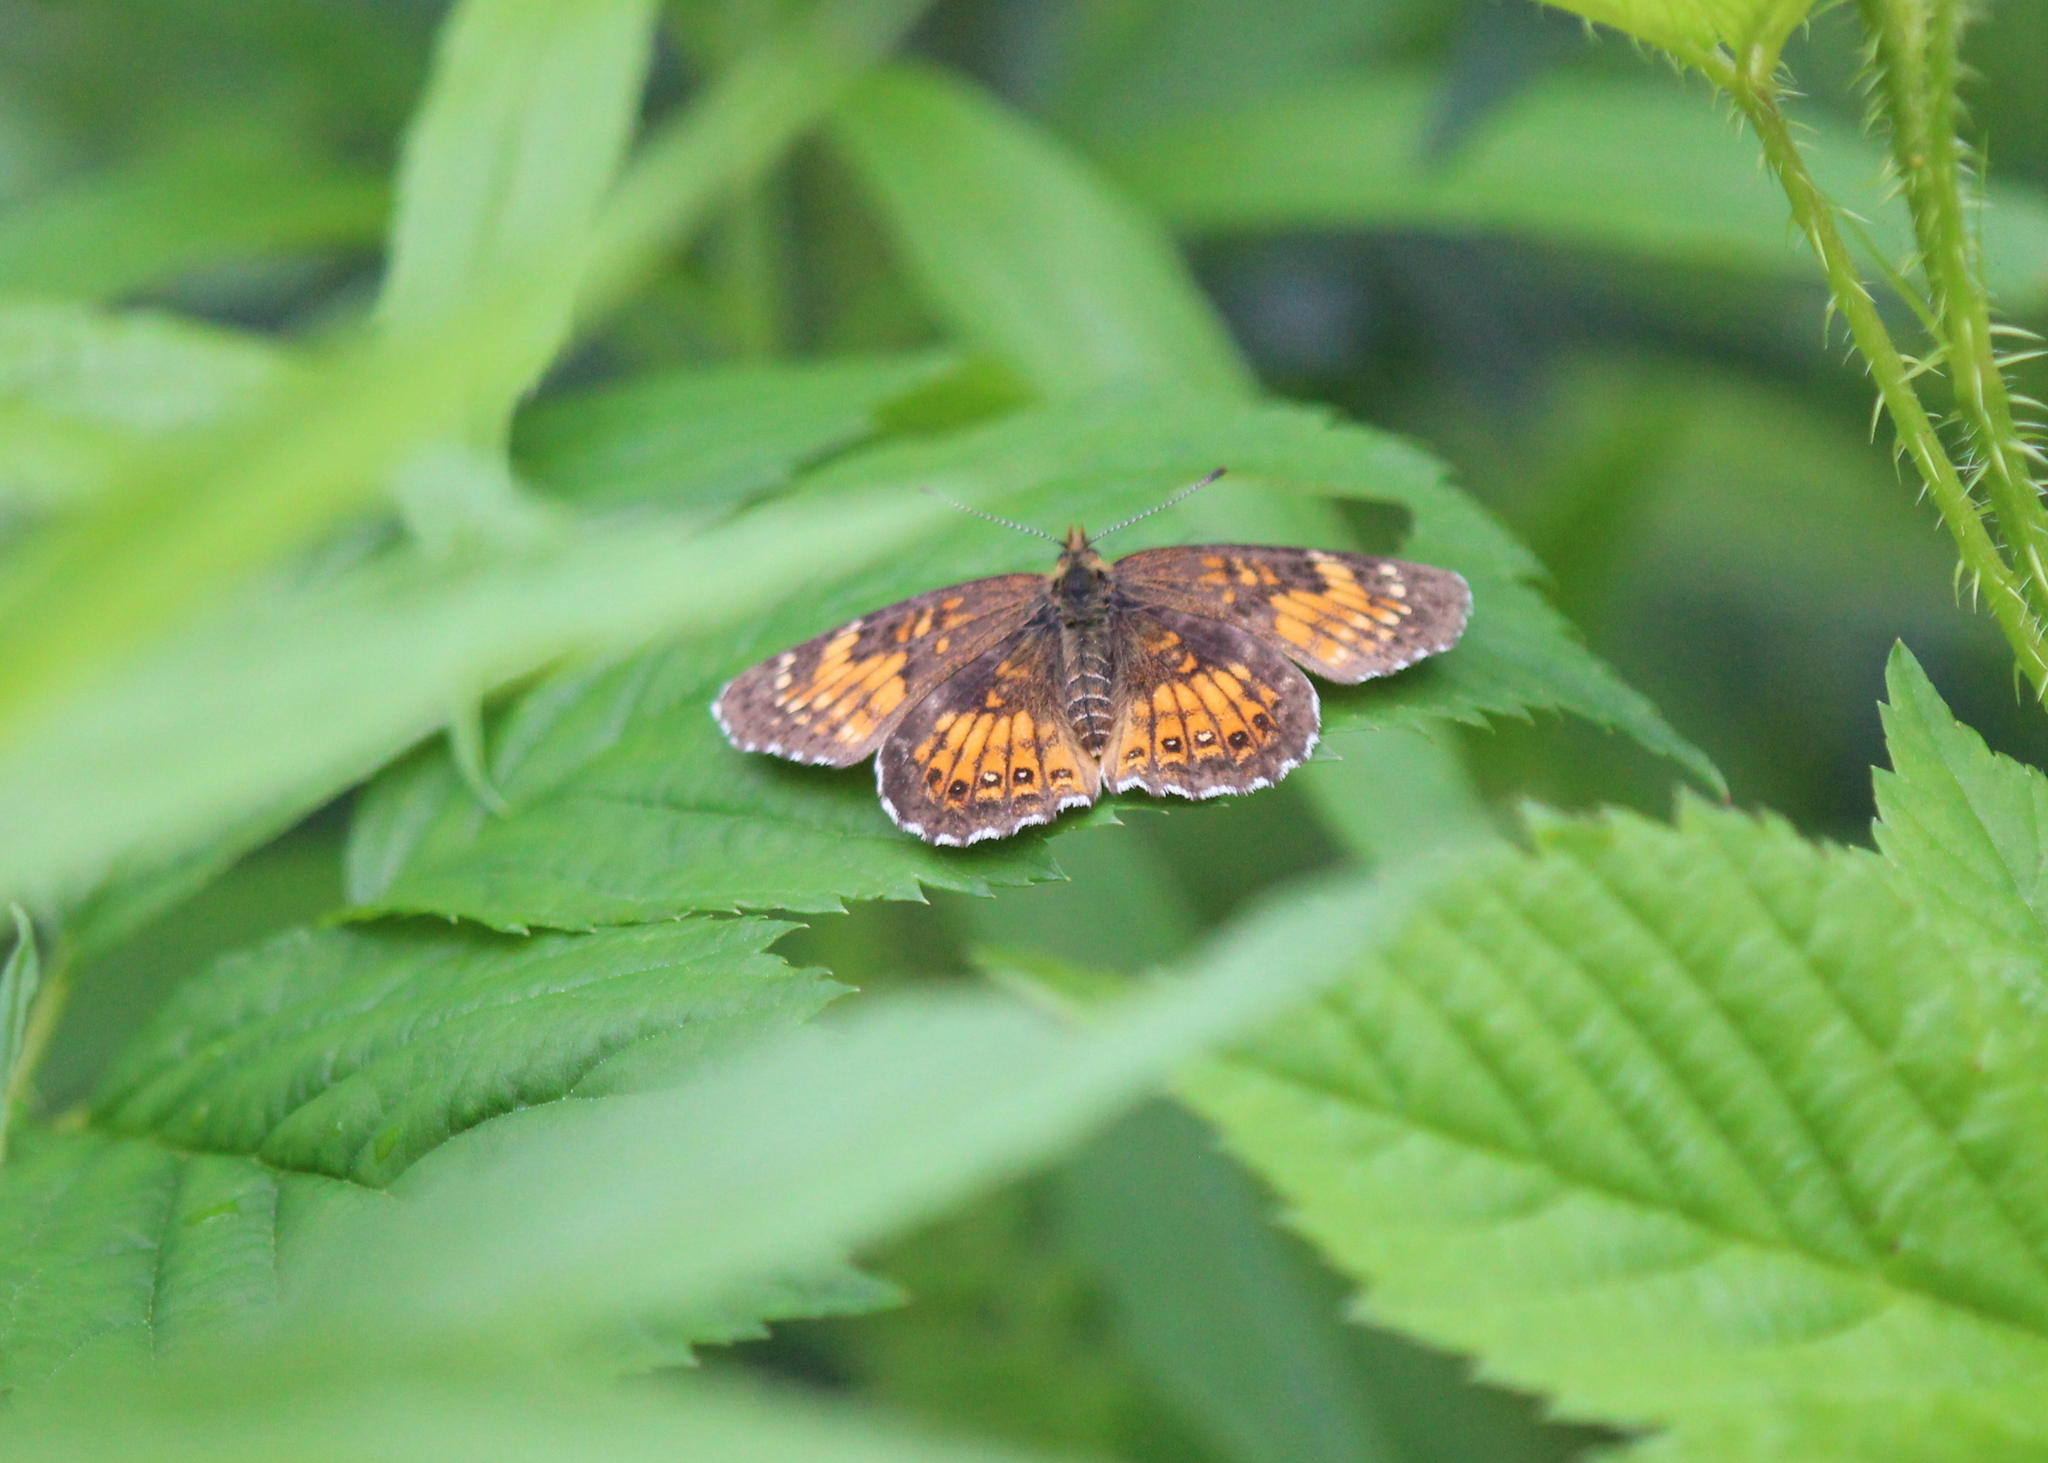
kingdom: Animalia
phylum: Arthropoda
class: Insecta
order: Lepidoptera
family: Nymphalidae
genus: Chlosyne
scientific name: Chlosyne harrisii
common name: Harris's checkerspot
